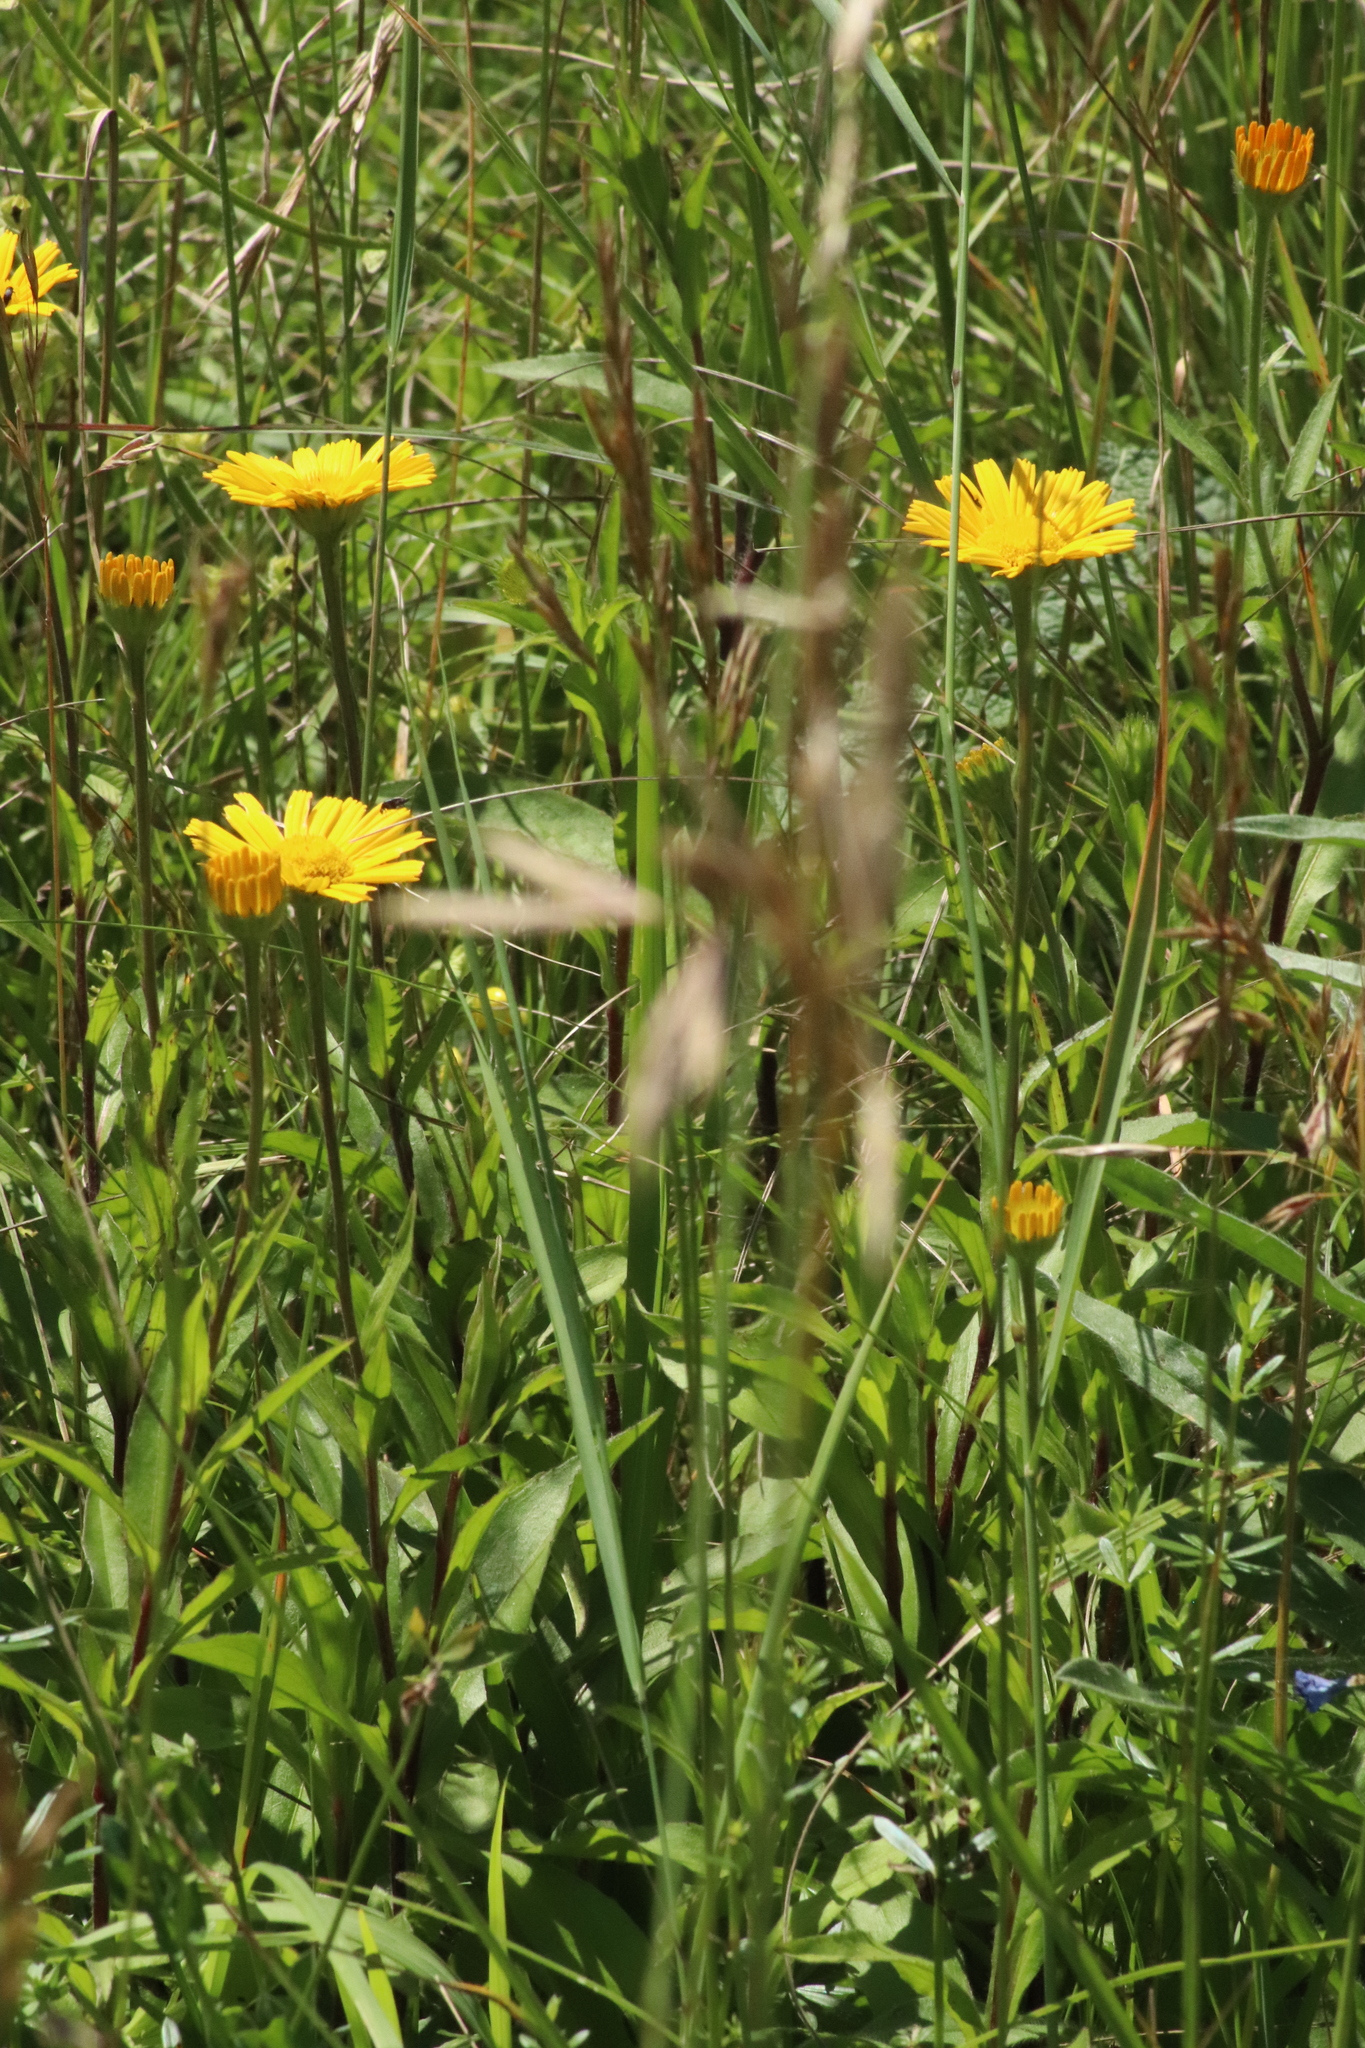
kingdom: Plantae
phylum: Tracheophyta
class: Magnoliopsida
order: Asterales
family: Asteraceae
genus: Buphthalmum
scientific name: Buphthalmum salicifolium
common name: Willow-leaved yellow-oxeye
